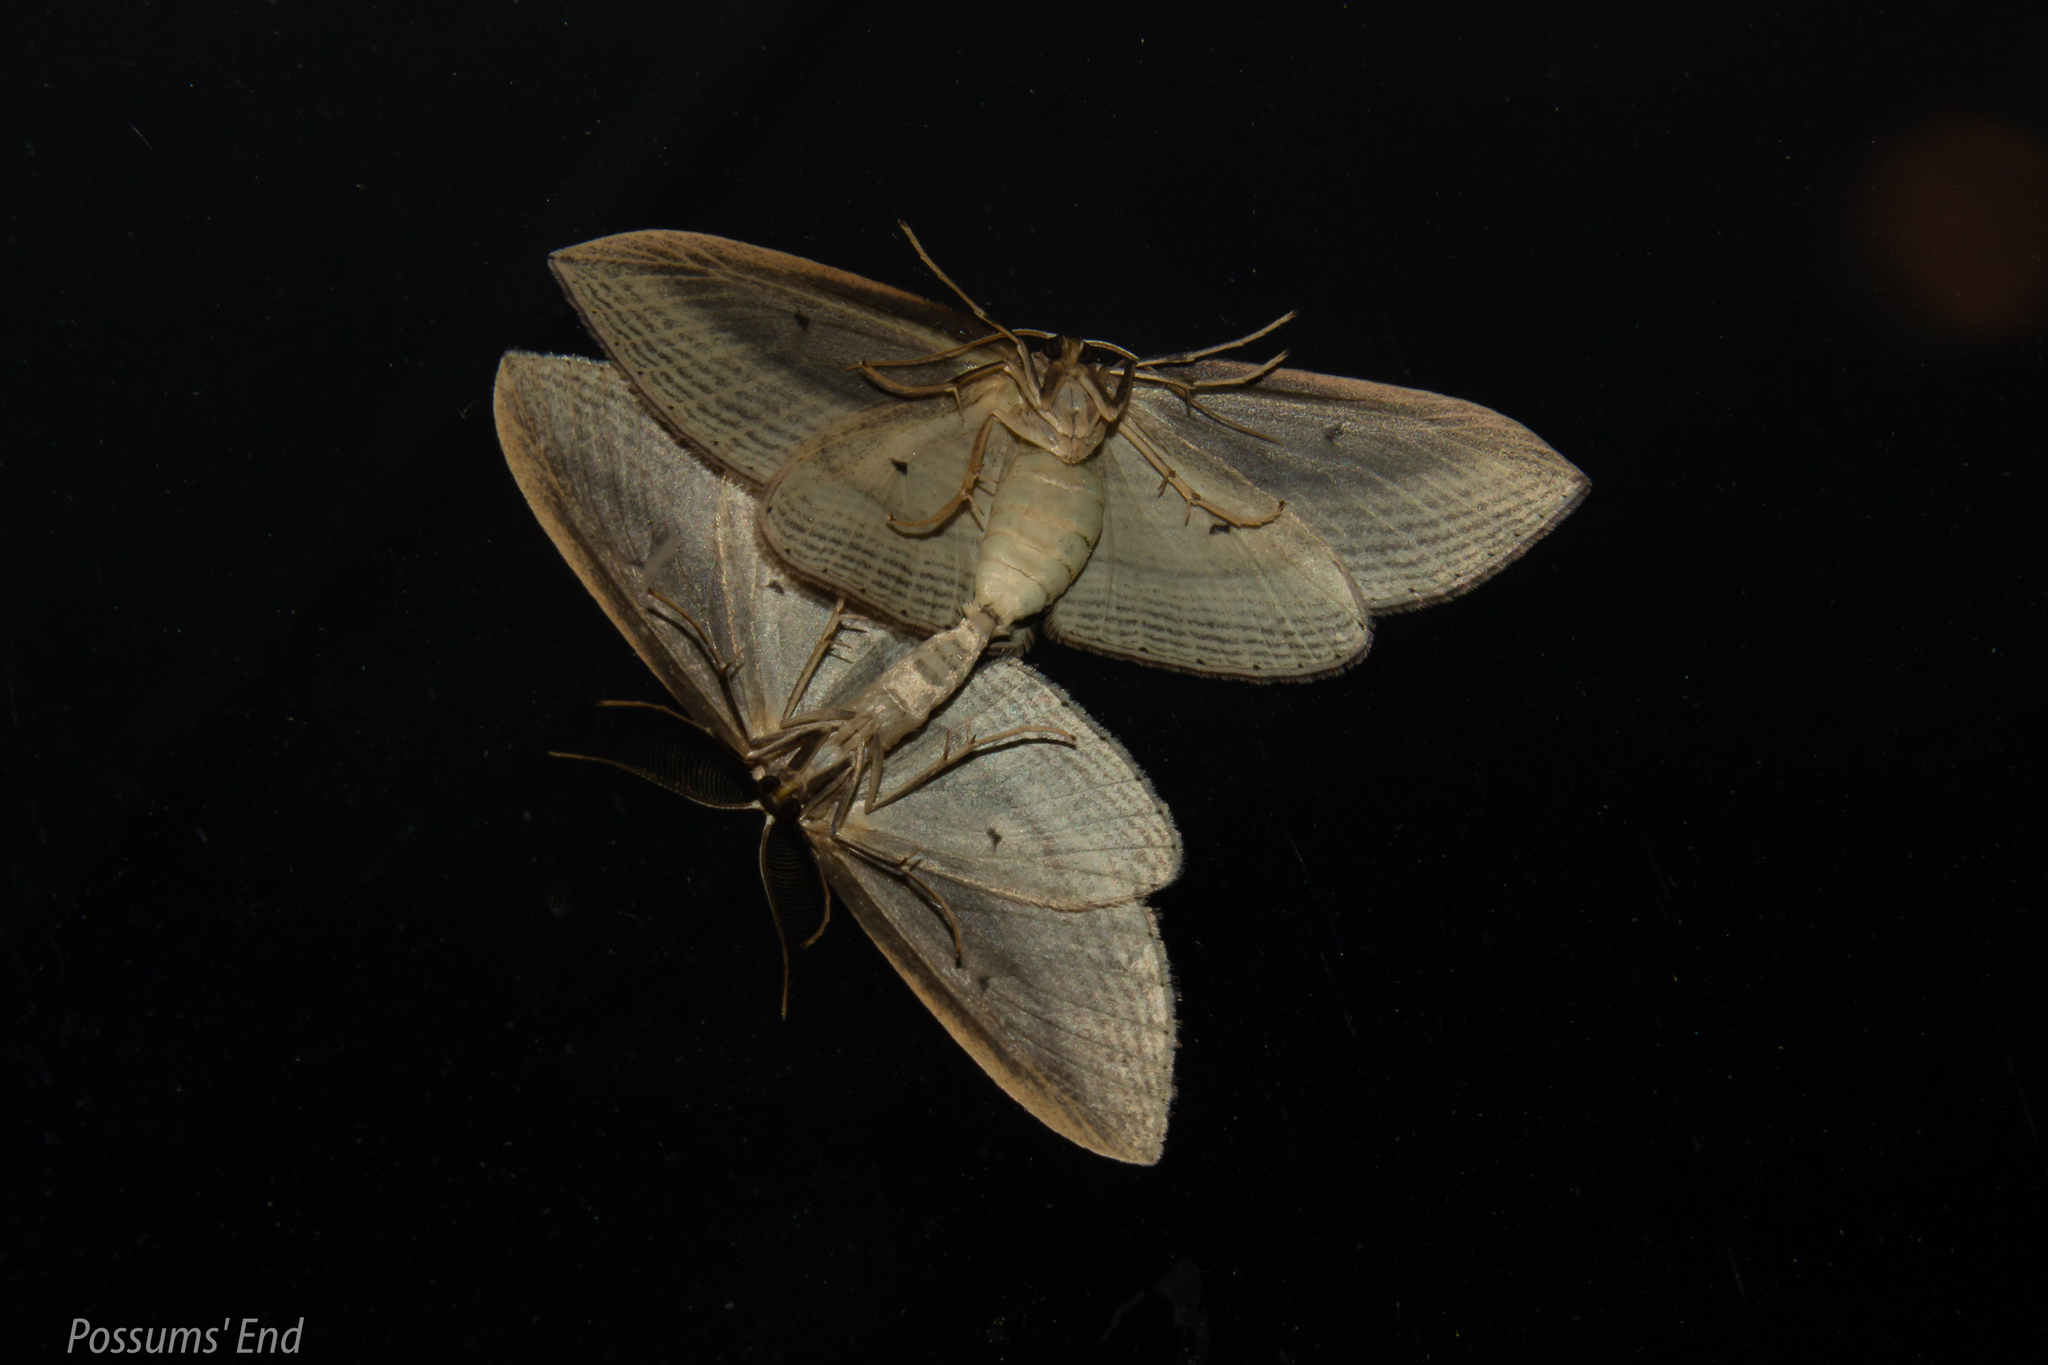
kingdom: Animalia
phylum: Arthropoda
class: Insecta
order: Lepidoptera
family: Geometridae
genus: Epiphryne
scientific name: Epiphryne verriculata
